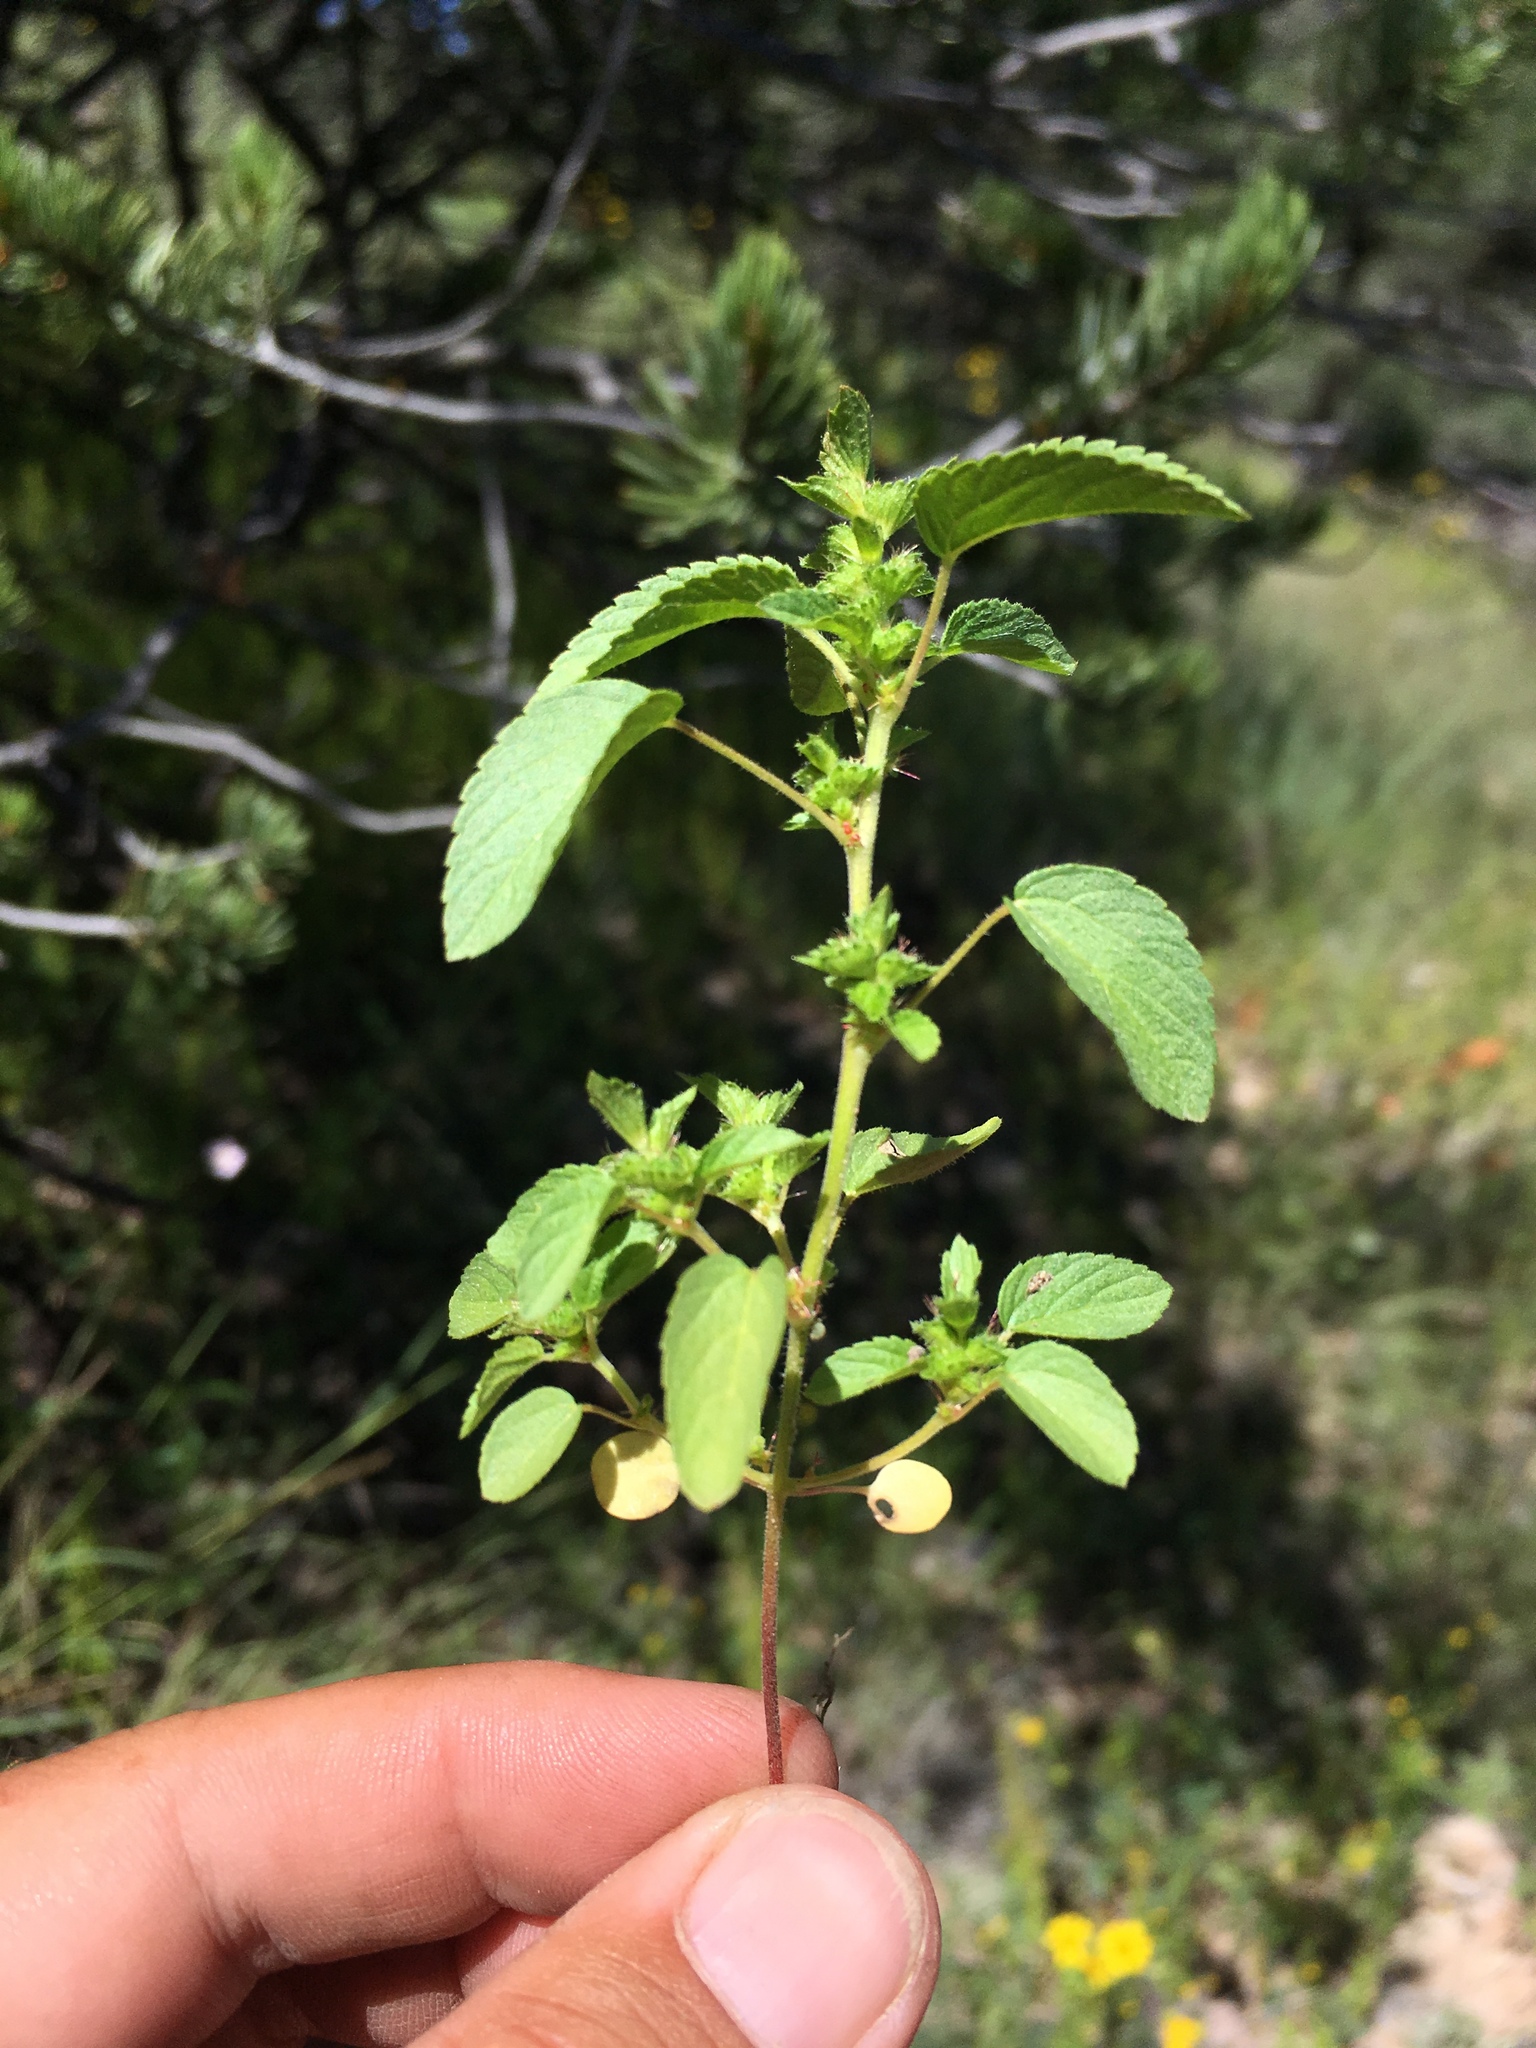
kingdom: Plantae
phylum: Tracheophyta
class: Magnoliopsida
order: Malpighiales
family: Euphorbiaceae
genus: Acalypha
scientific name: Acalypha neomexicana
